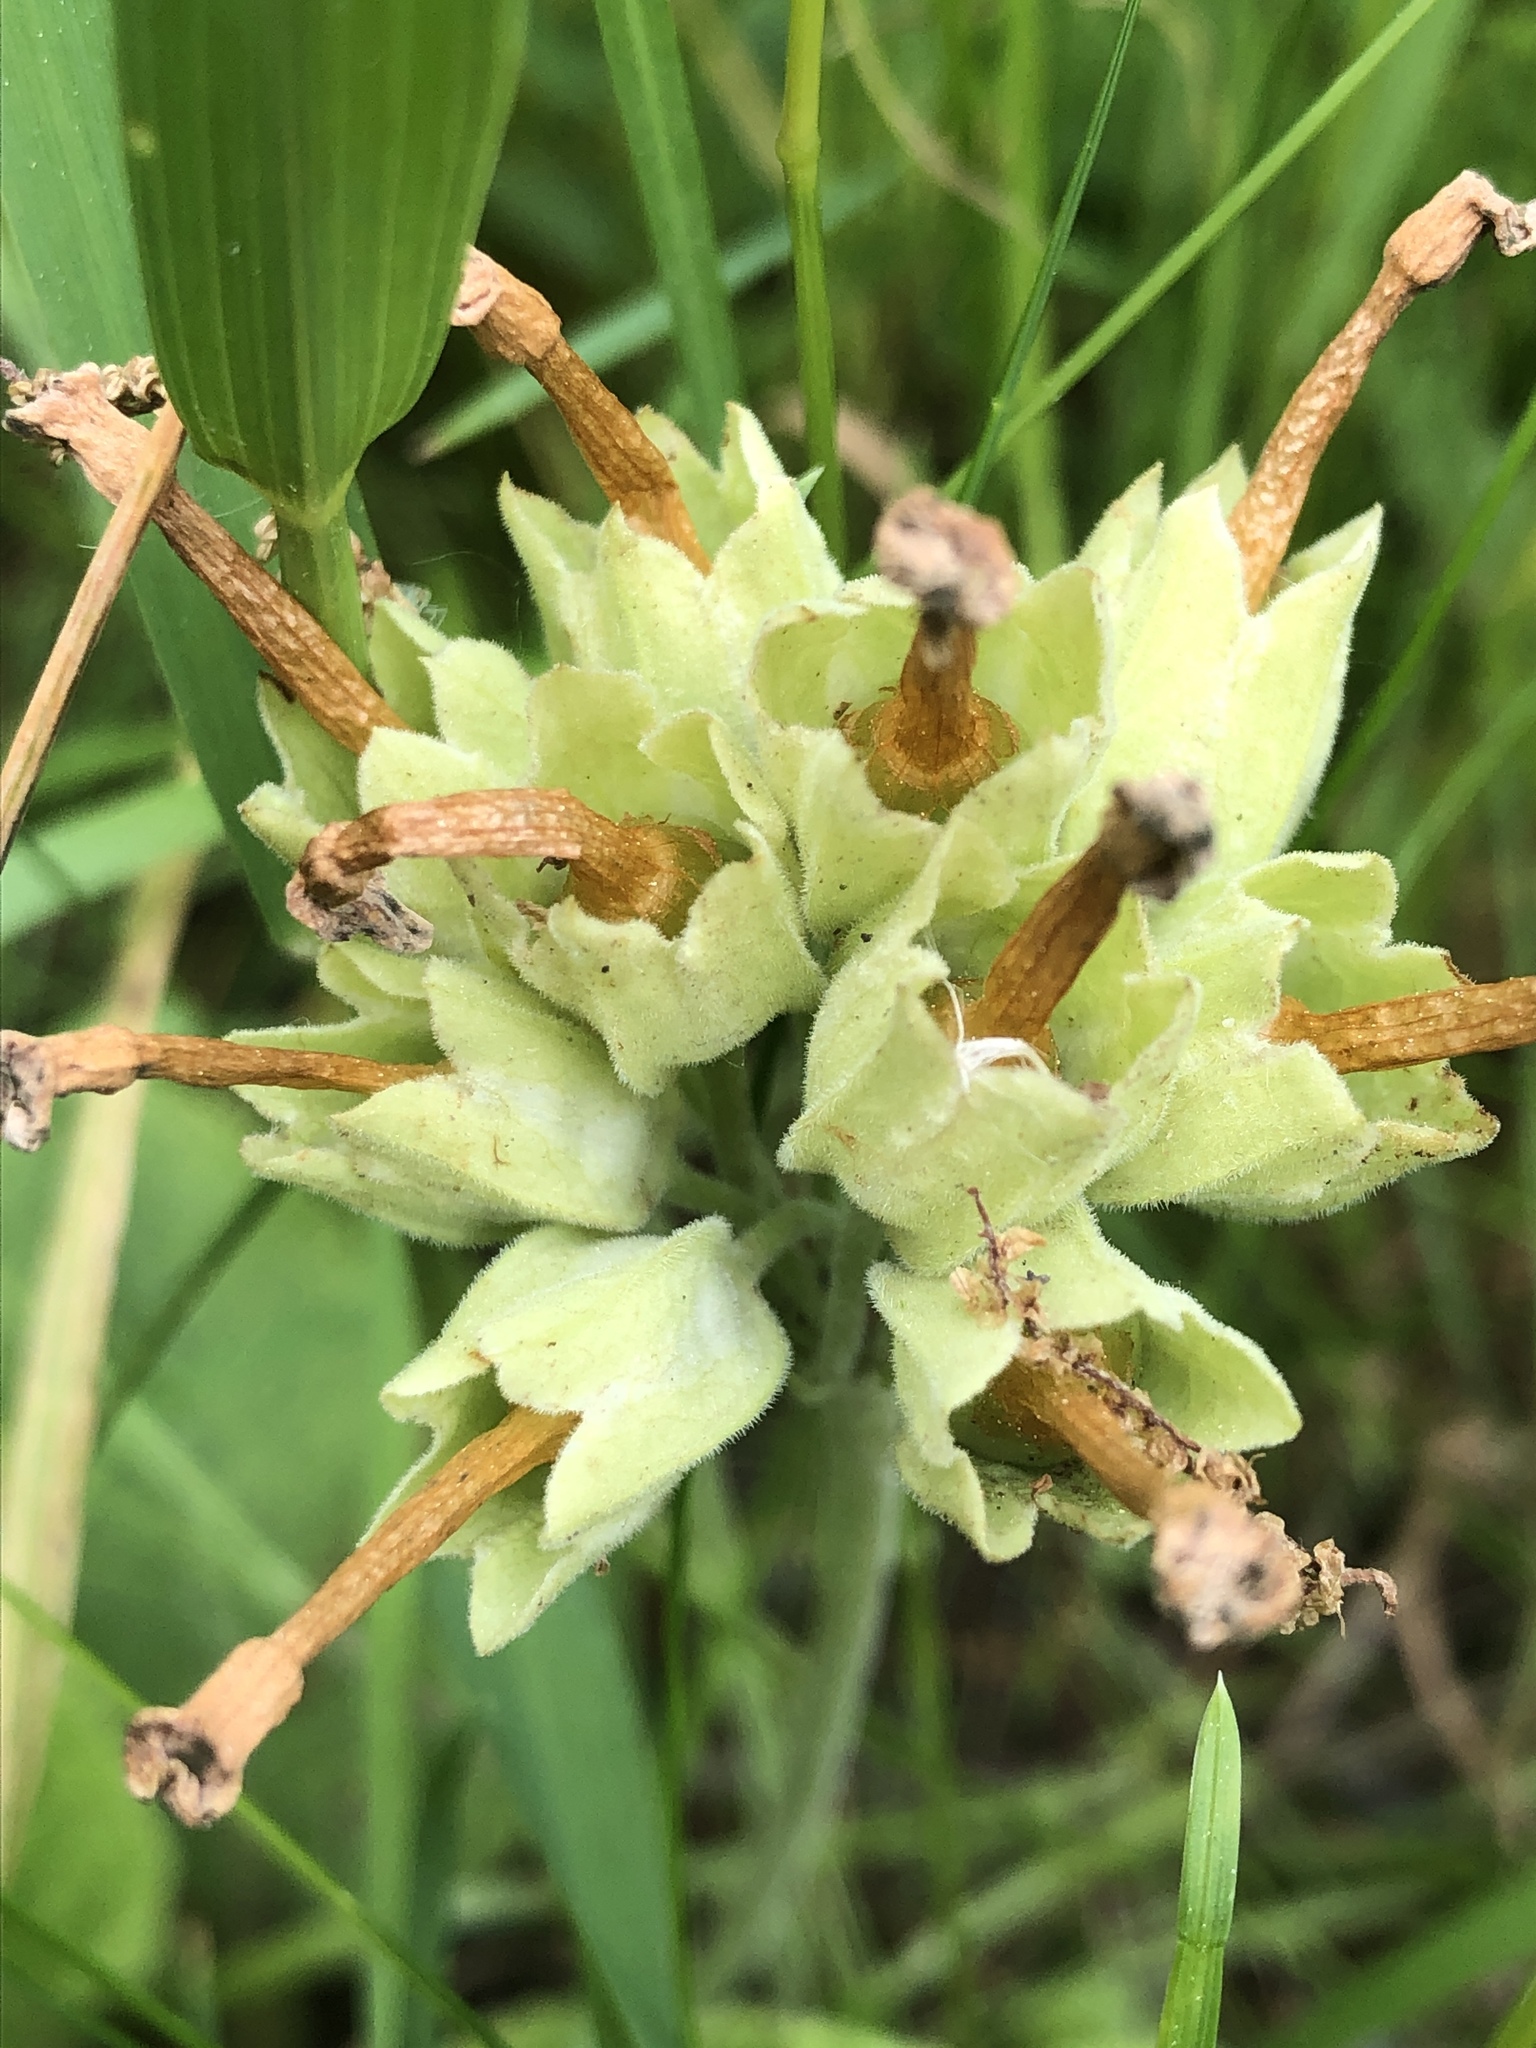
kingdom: Plantae
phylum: Tracheophyta
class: Magnoliopsida
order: Ericales
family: Primulaceae
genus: Primula
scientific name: Primula veris
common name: Cowslip
